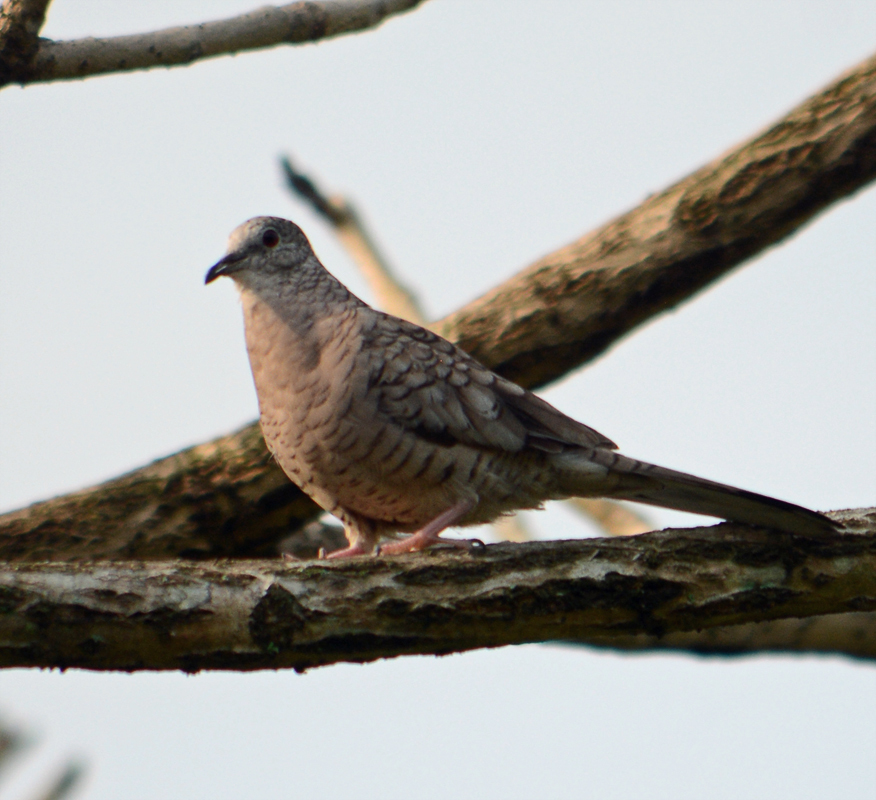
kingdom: Animalia
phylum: Chordata
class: Aves
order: Columbiformes
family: Columbidae
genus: Columbina
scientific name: Columbina inca
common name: Inca dove
